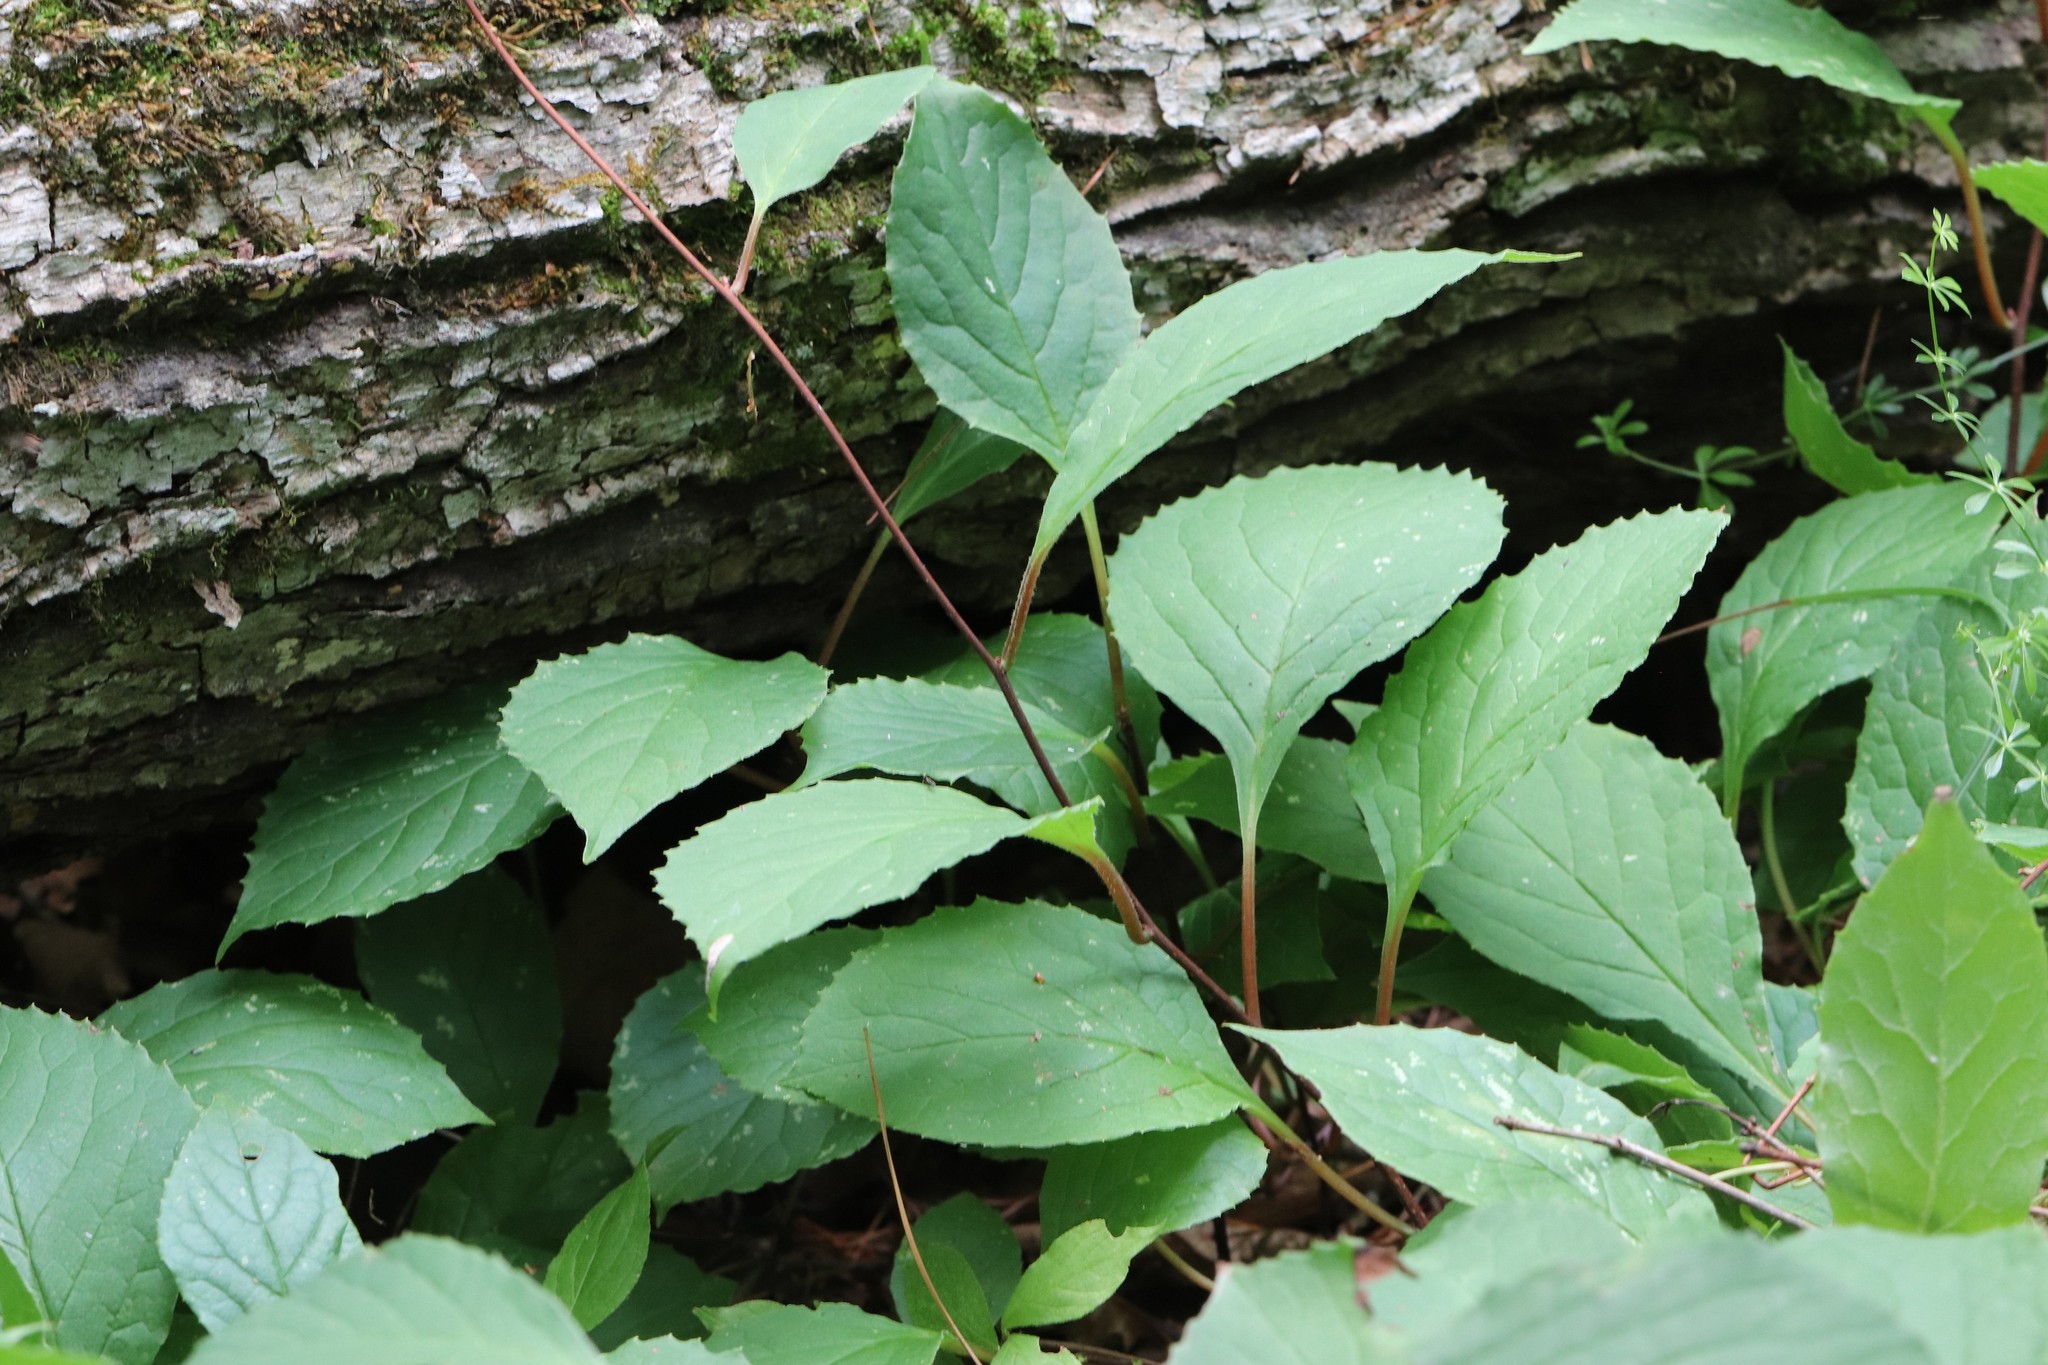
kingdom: Plantae
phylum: Tracheophyta
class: Magnoliopsida
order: Austrobaileyales
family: Schisandraceae
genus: Schisandra
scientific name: Schisandra chinensis
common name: Magnolia-vine
